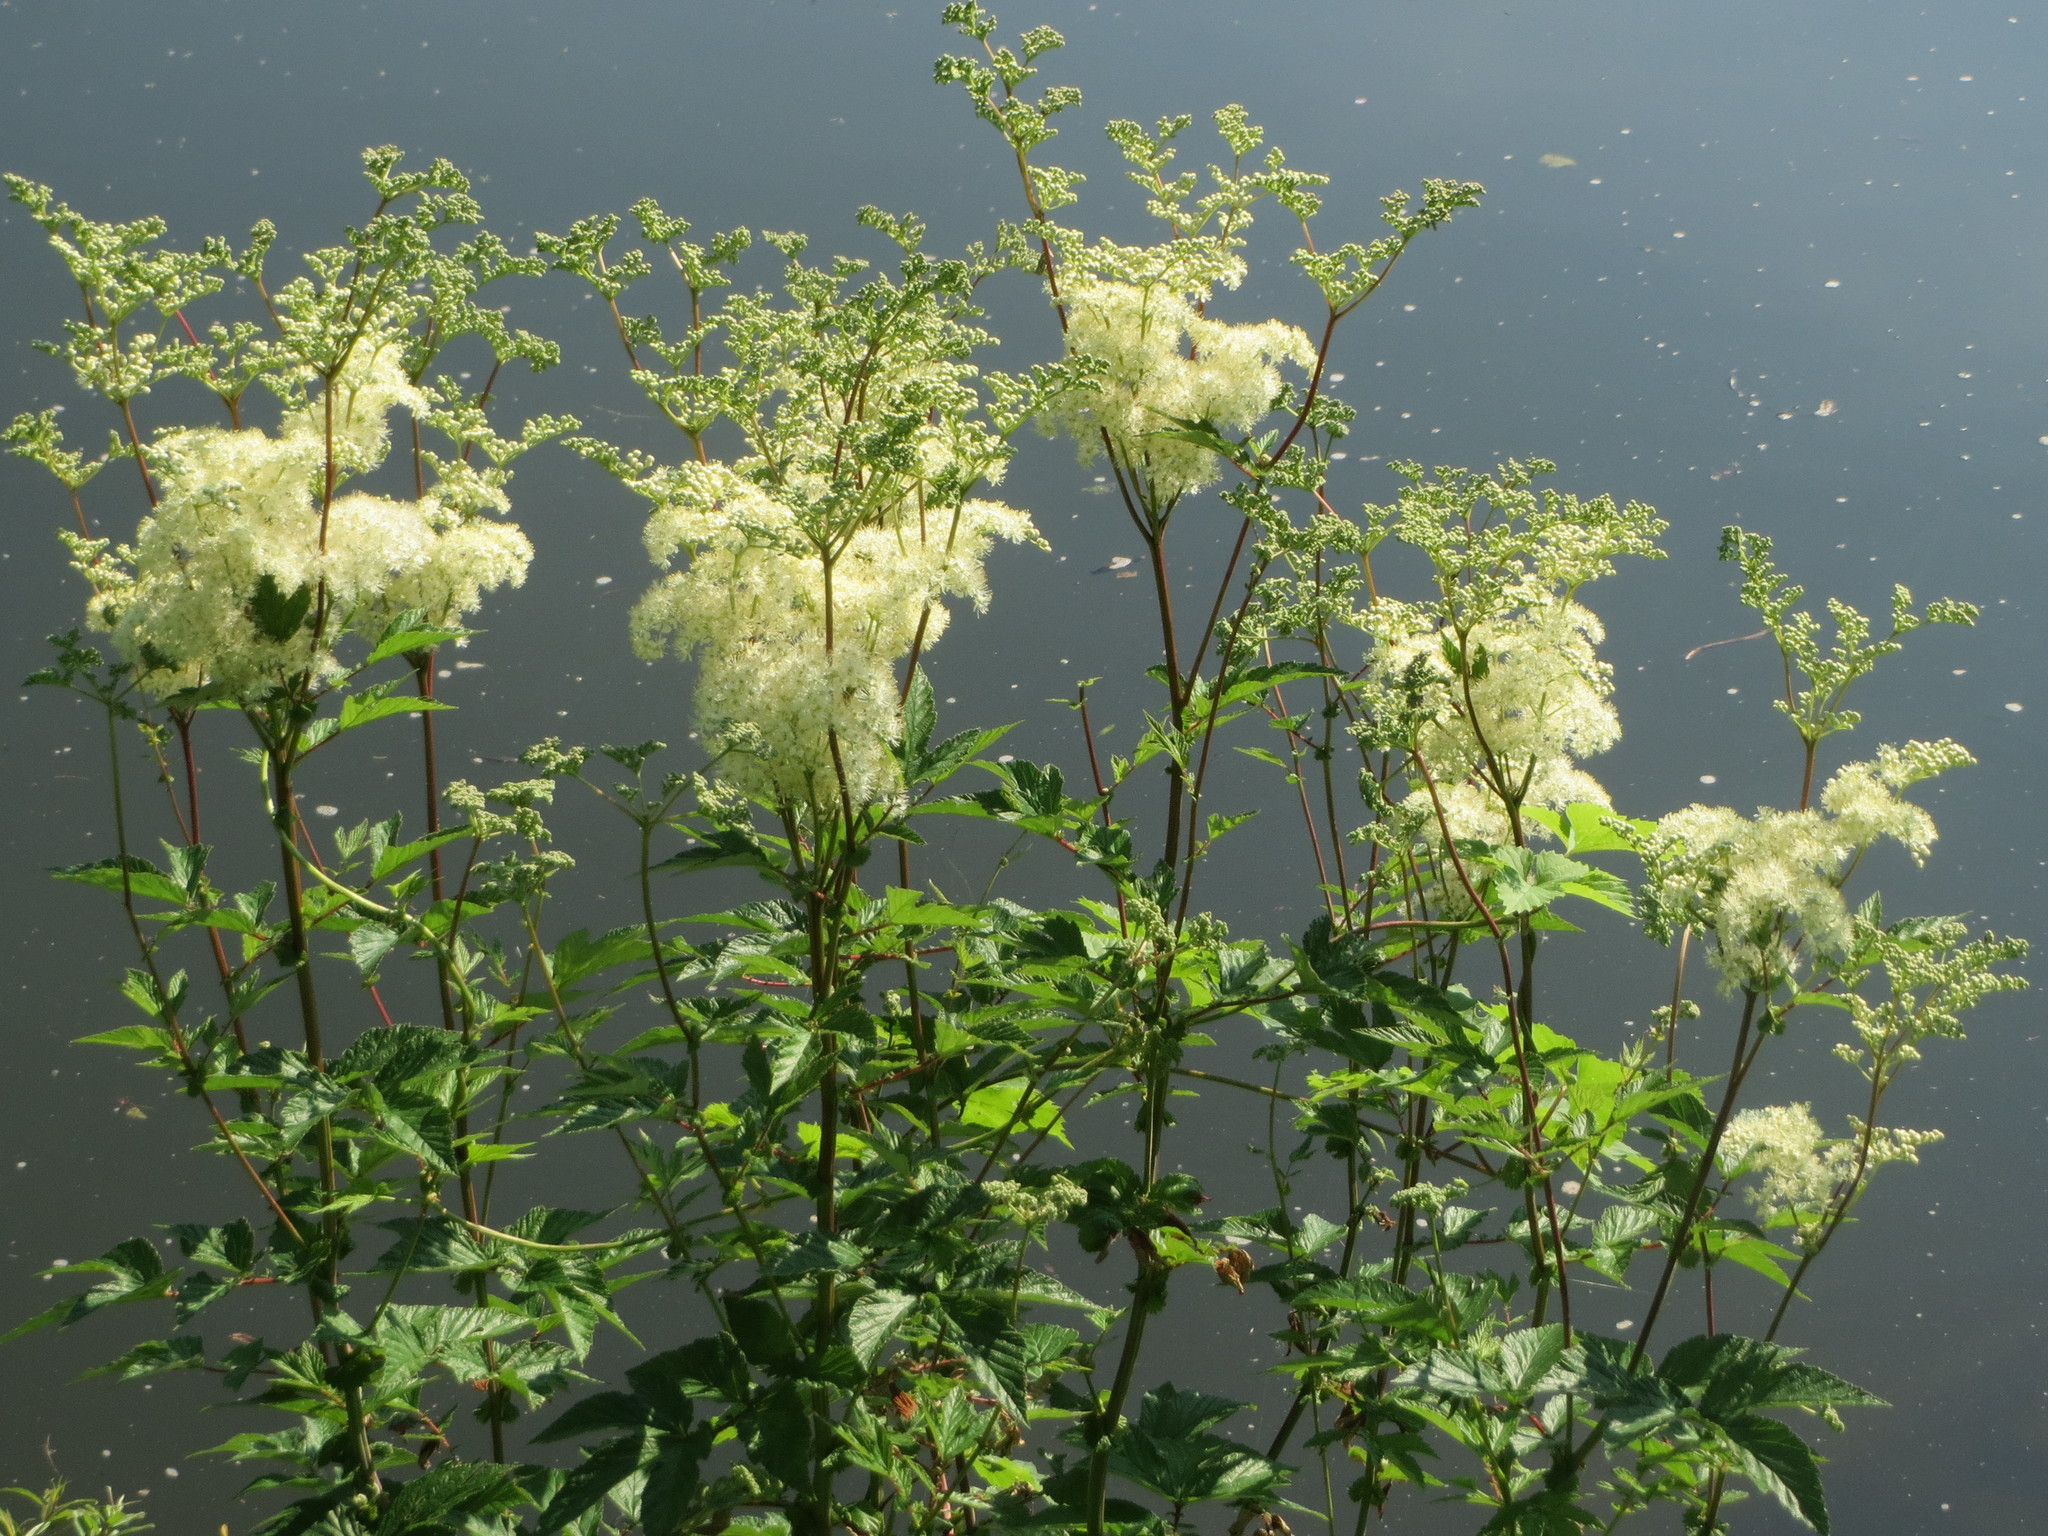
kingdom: Plantae
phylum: Tracheophyta
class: Magnoliopsida
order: Rosales
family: Rosaceae
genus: Filipendula
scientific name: Filipendula ulmaria
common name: Meadowsweet
